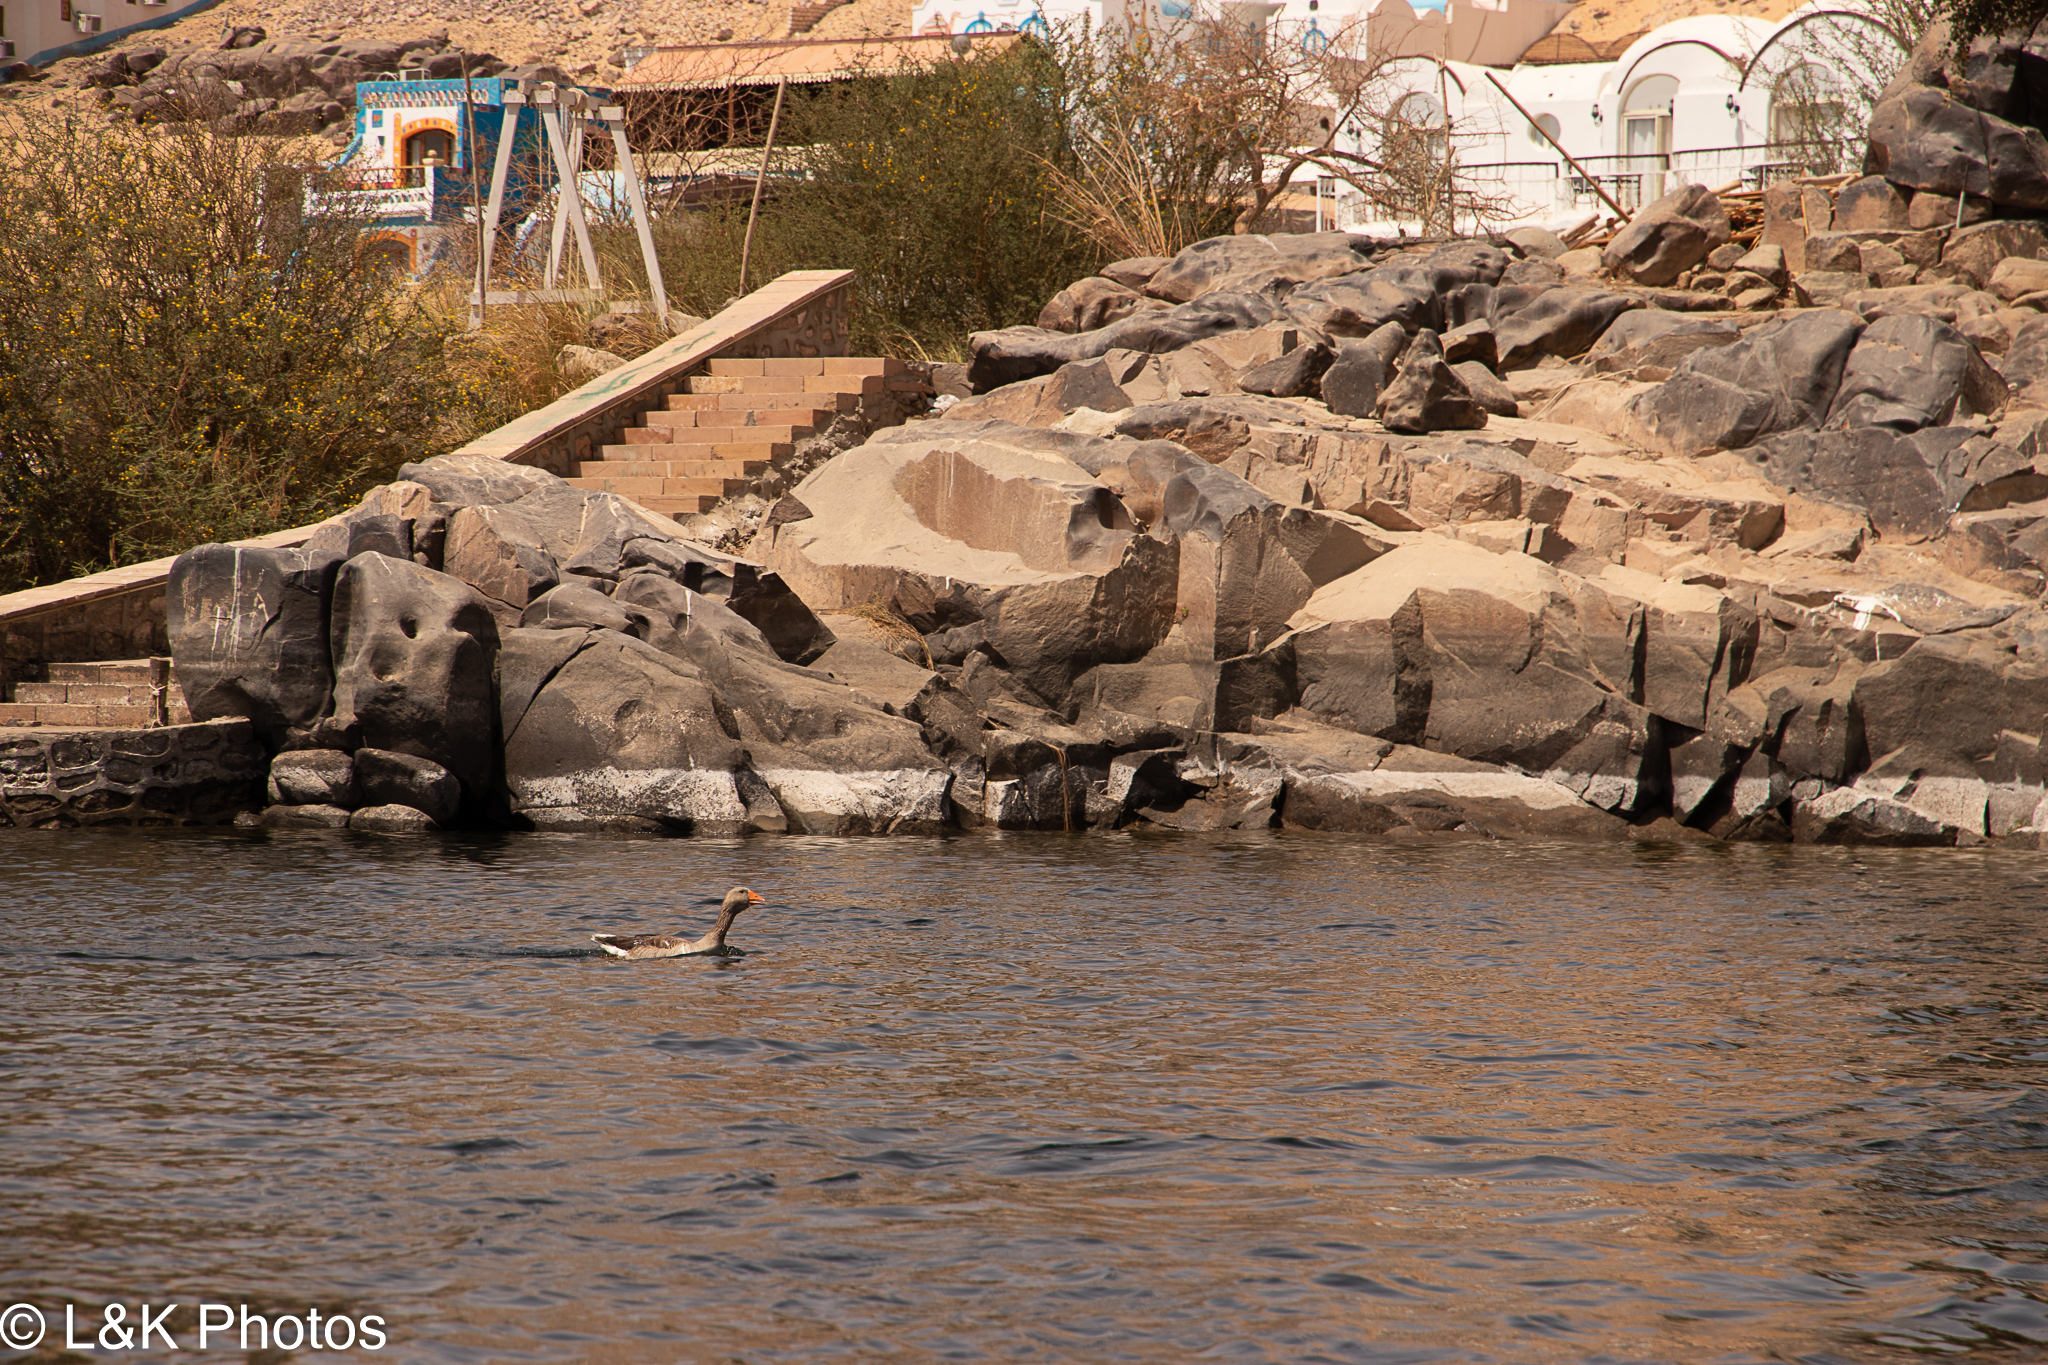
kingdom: Animalia
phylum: Chordata
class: Aves
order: Anseriformes
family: Anatidae
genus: Anser
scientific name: Anser anser
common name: Greylag goose
